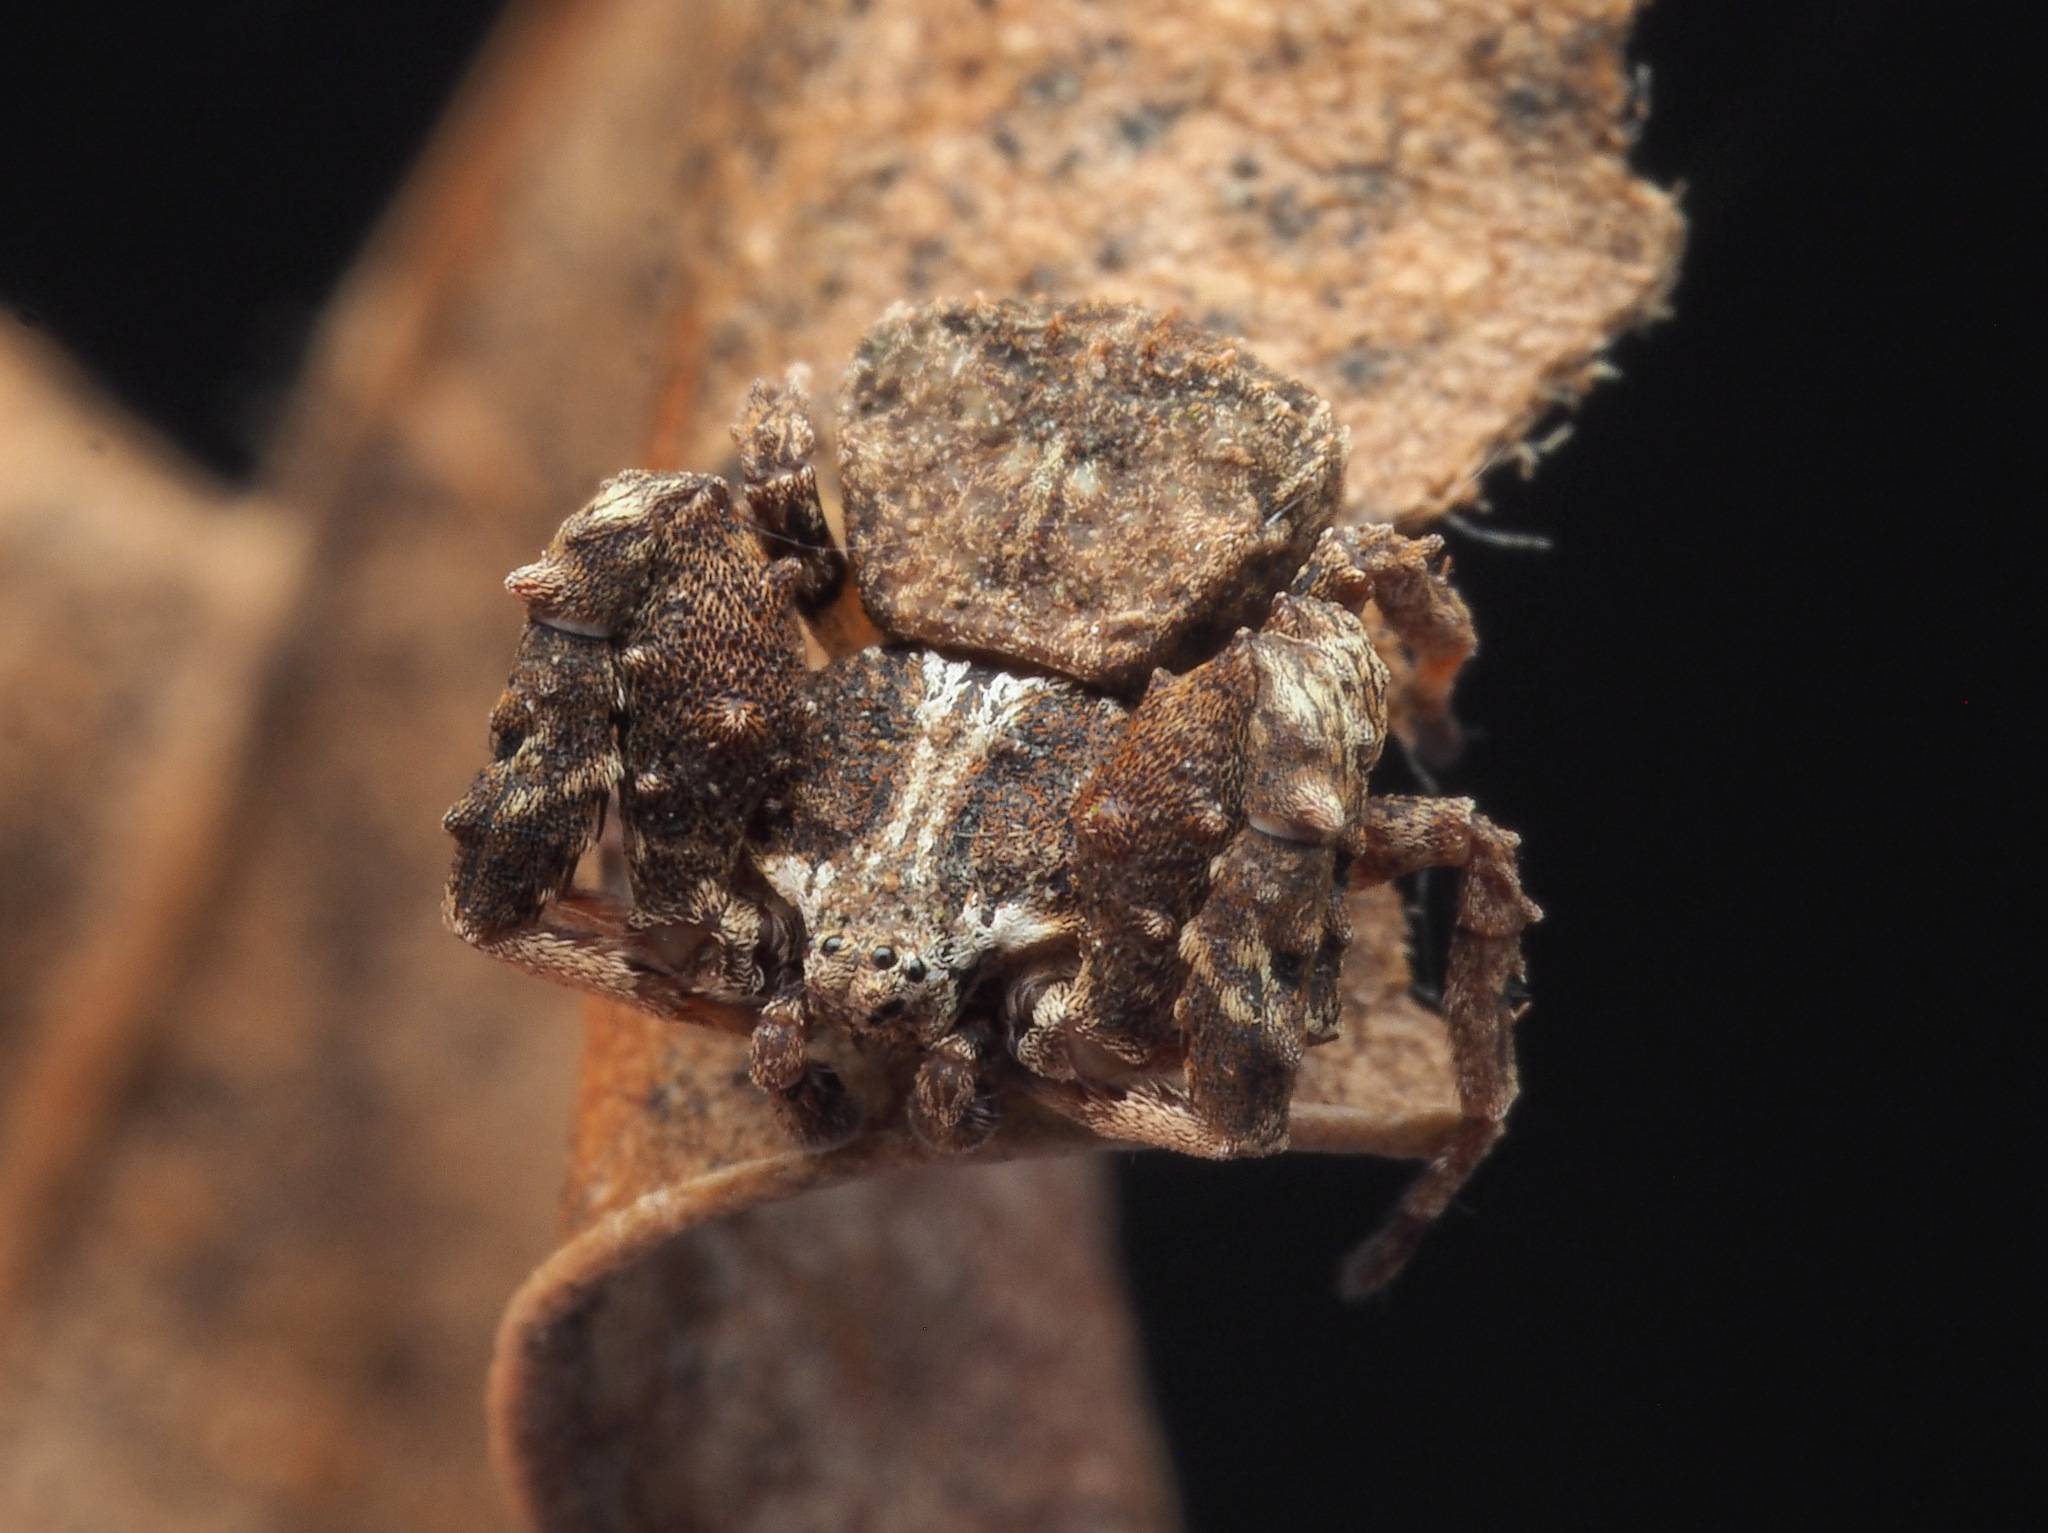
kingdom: Animalia
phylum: Arthropoda
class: Arachnida
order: Araneae
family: Thomisidae
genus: Stephanopis
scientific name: Stephanopis armata
